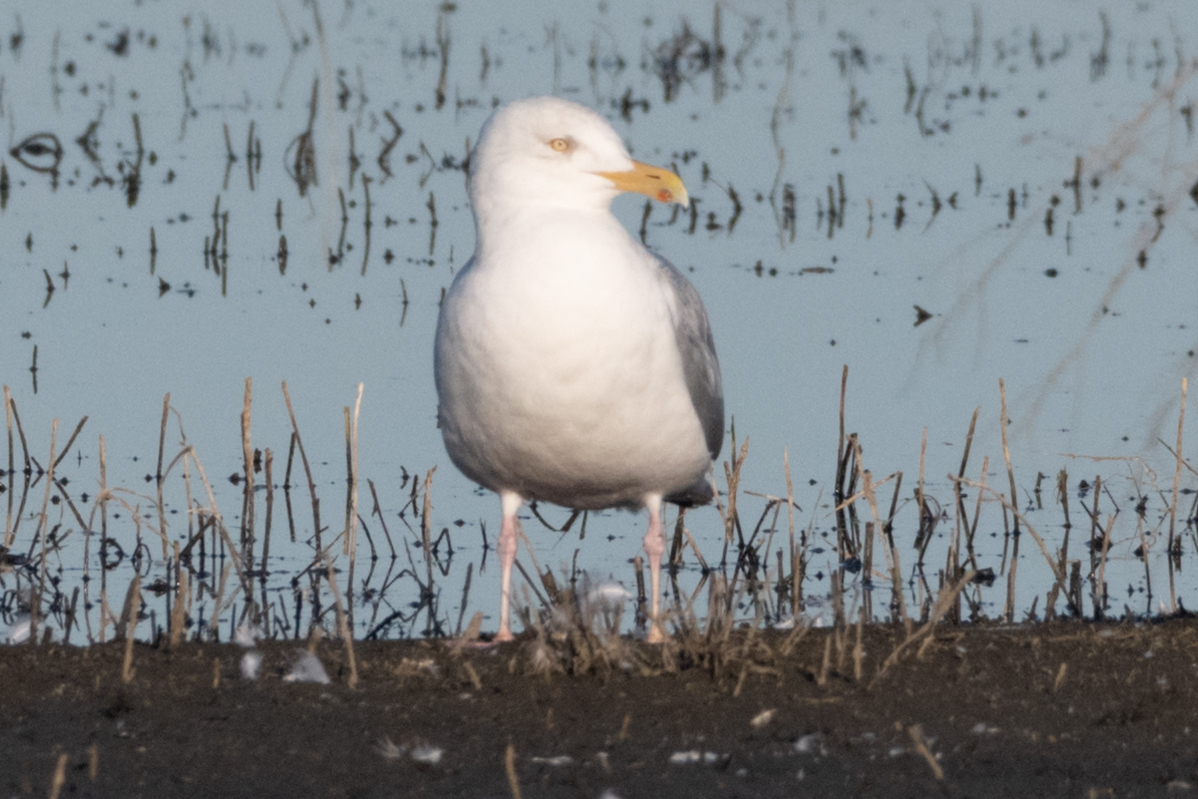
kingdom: Animalia
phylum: Chordata
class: Aves
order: Charadriiformes
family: Laridae
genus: Larus
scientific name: Larus argentatus
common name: Herring gull
